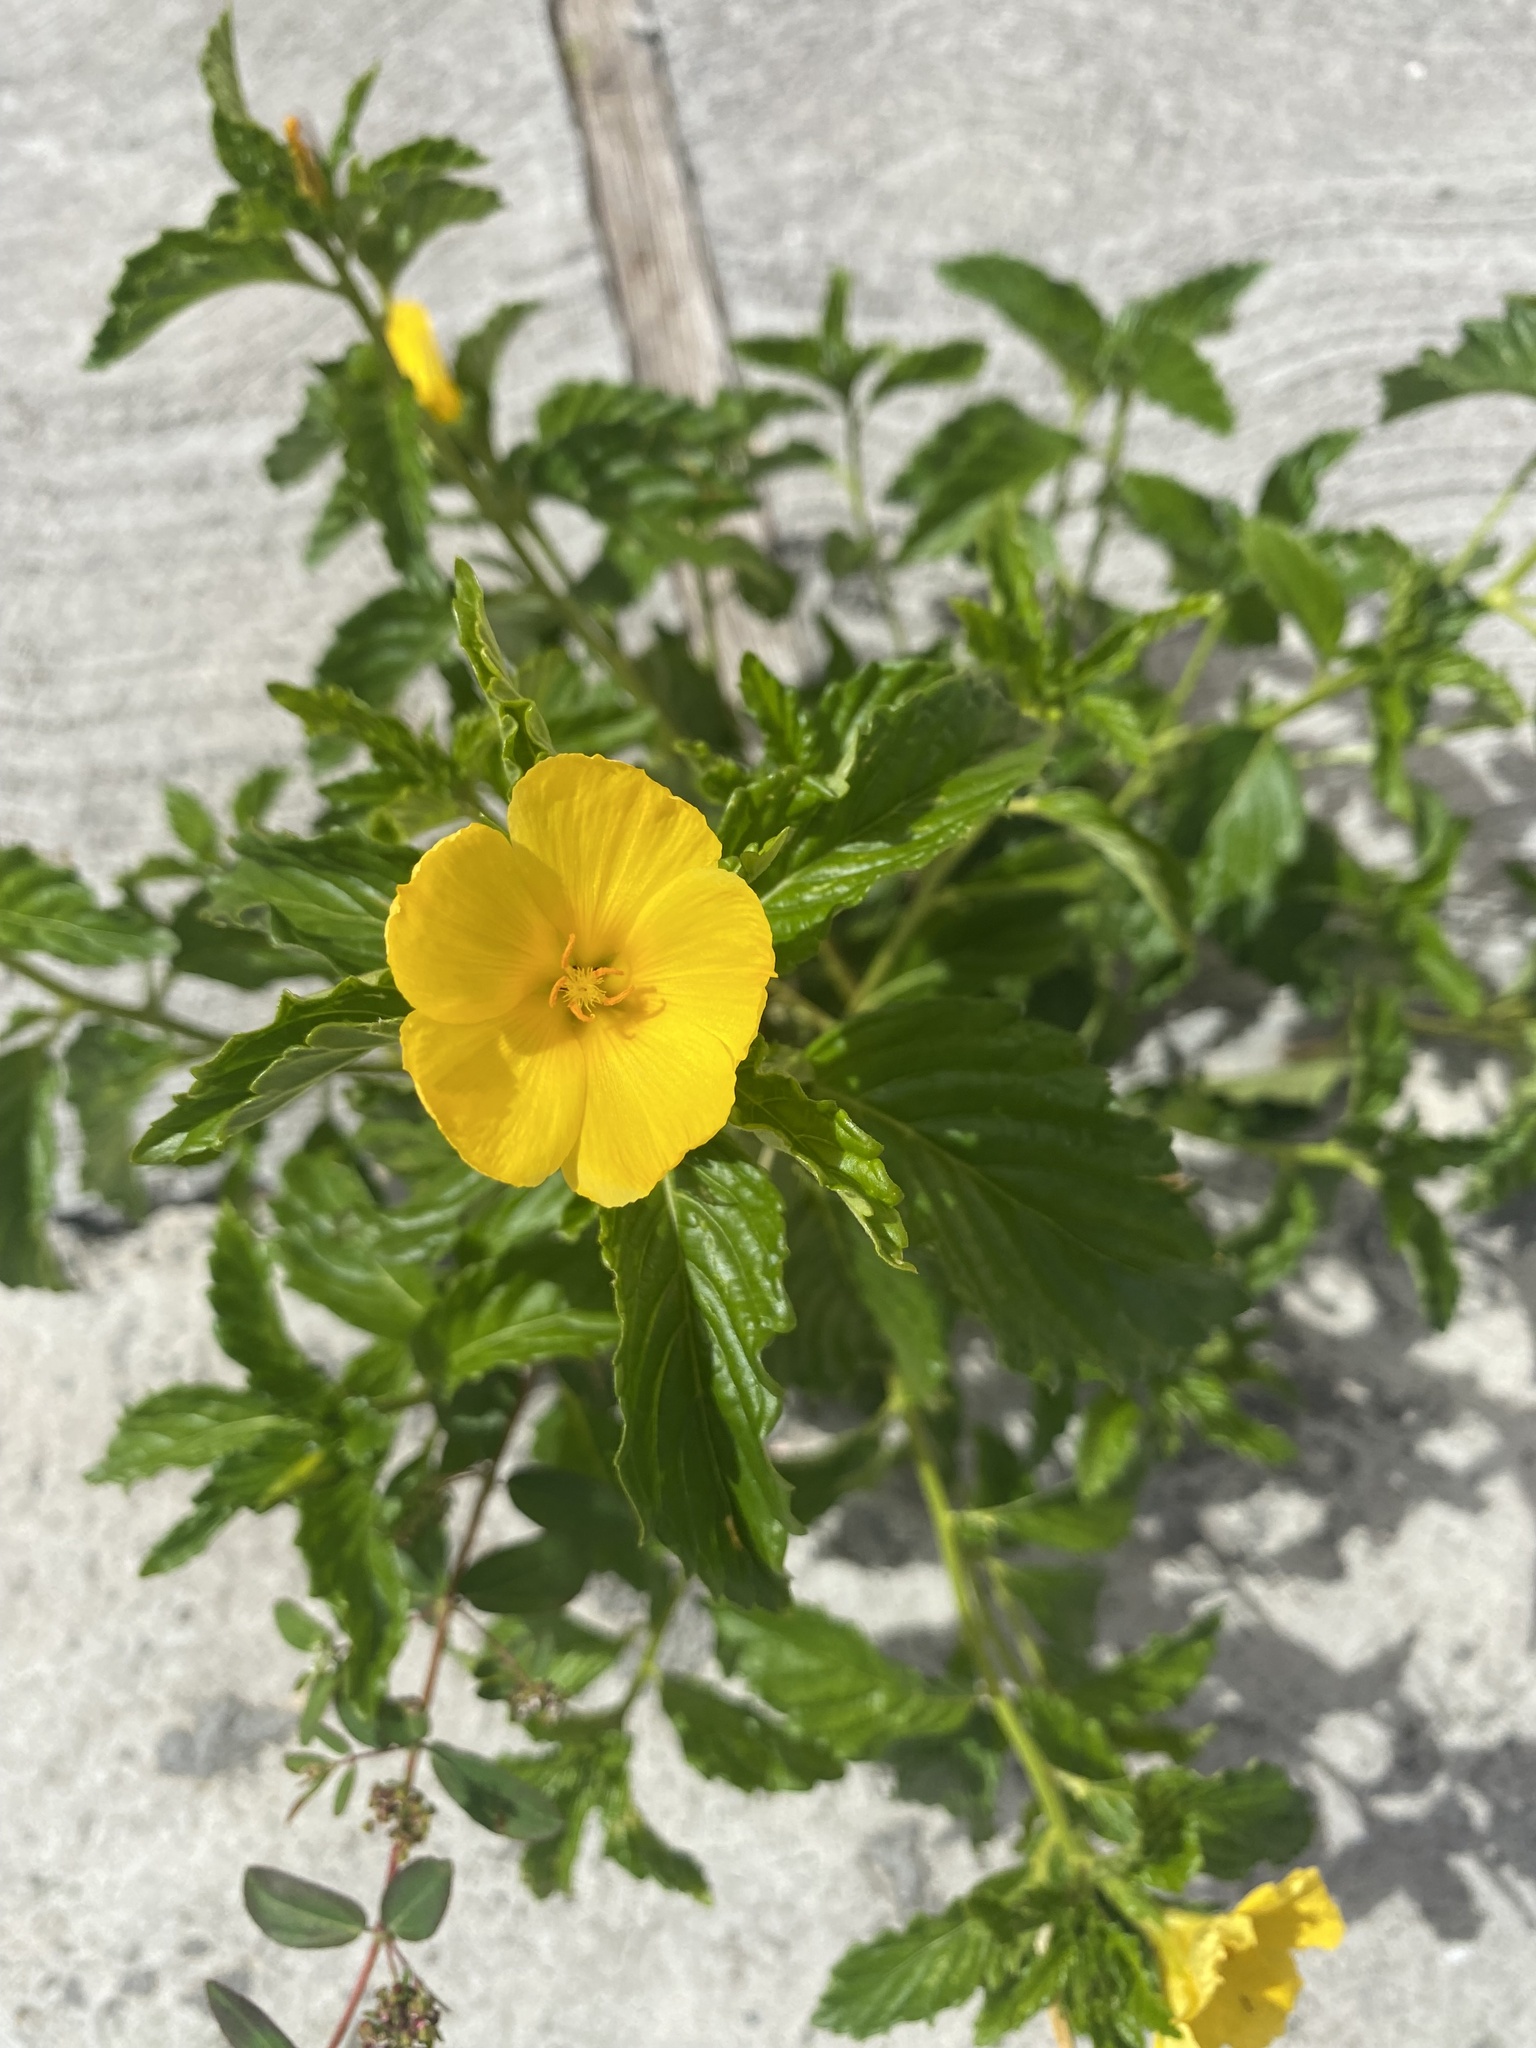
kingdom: Plantae
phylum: Tracheophyta
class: Magnoliopsida
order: Malpighiales
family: Turneraceae
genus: Turnera
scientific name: Turnera ulmifolia
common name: Ramgoat dashalong
